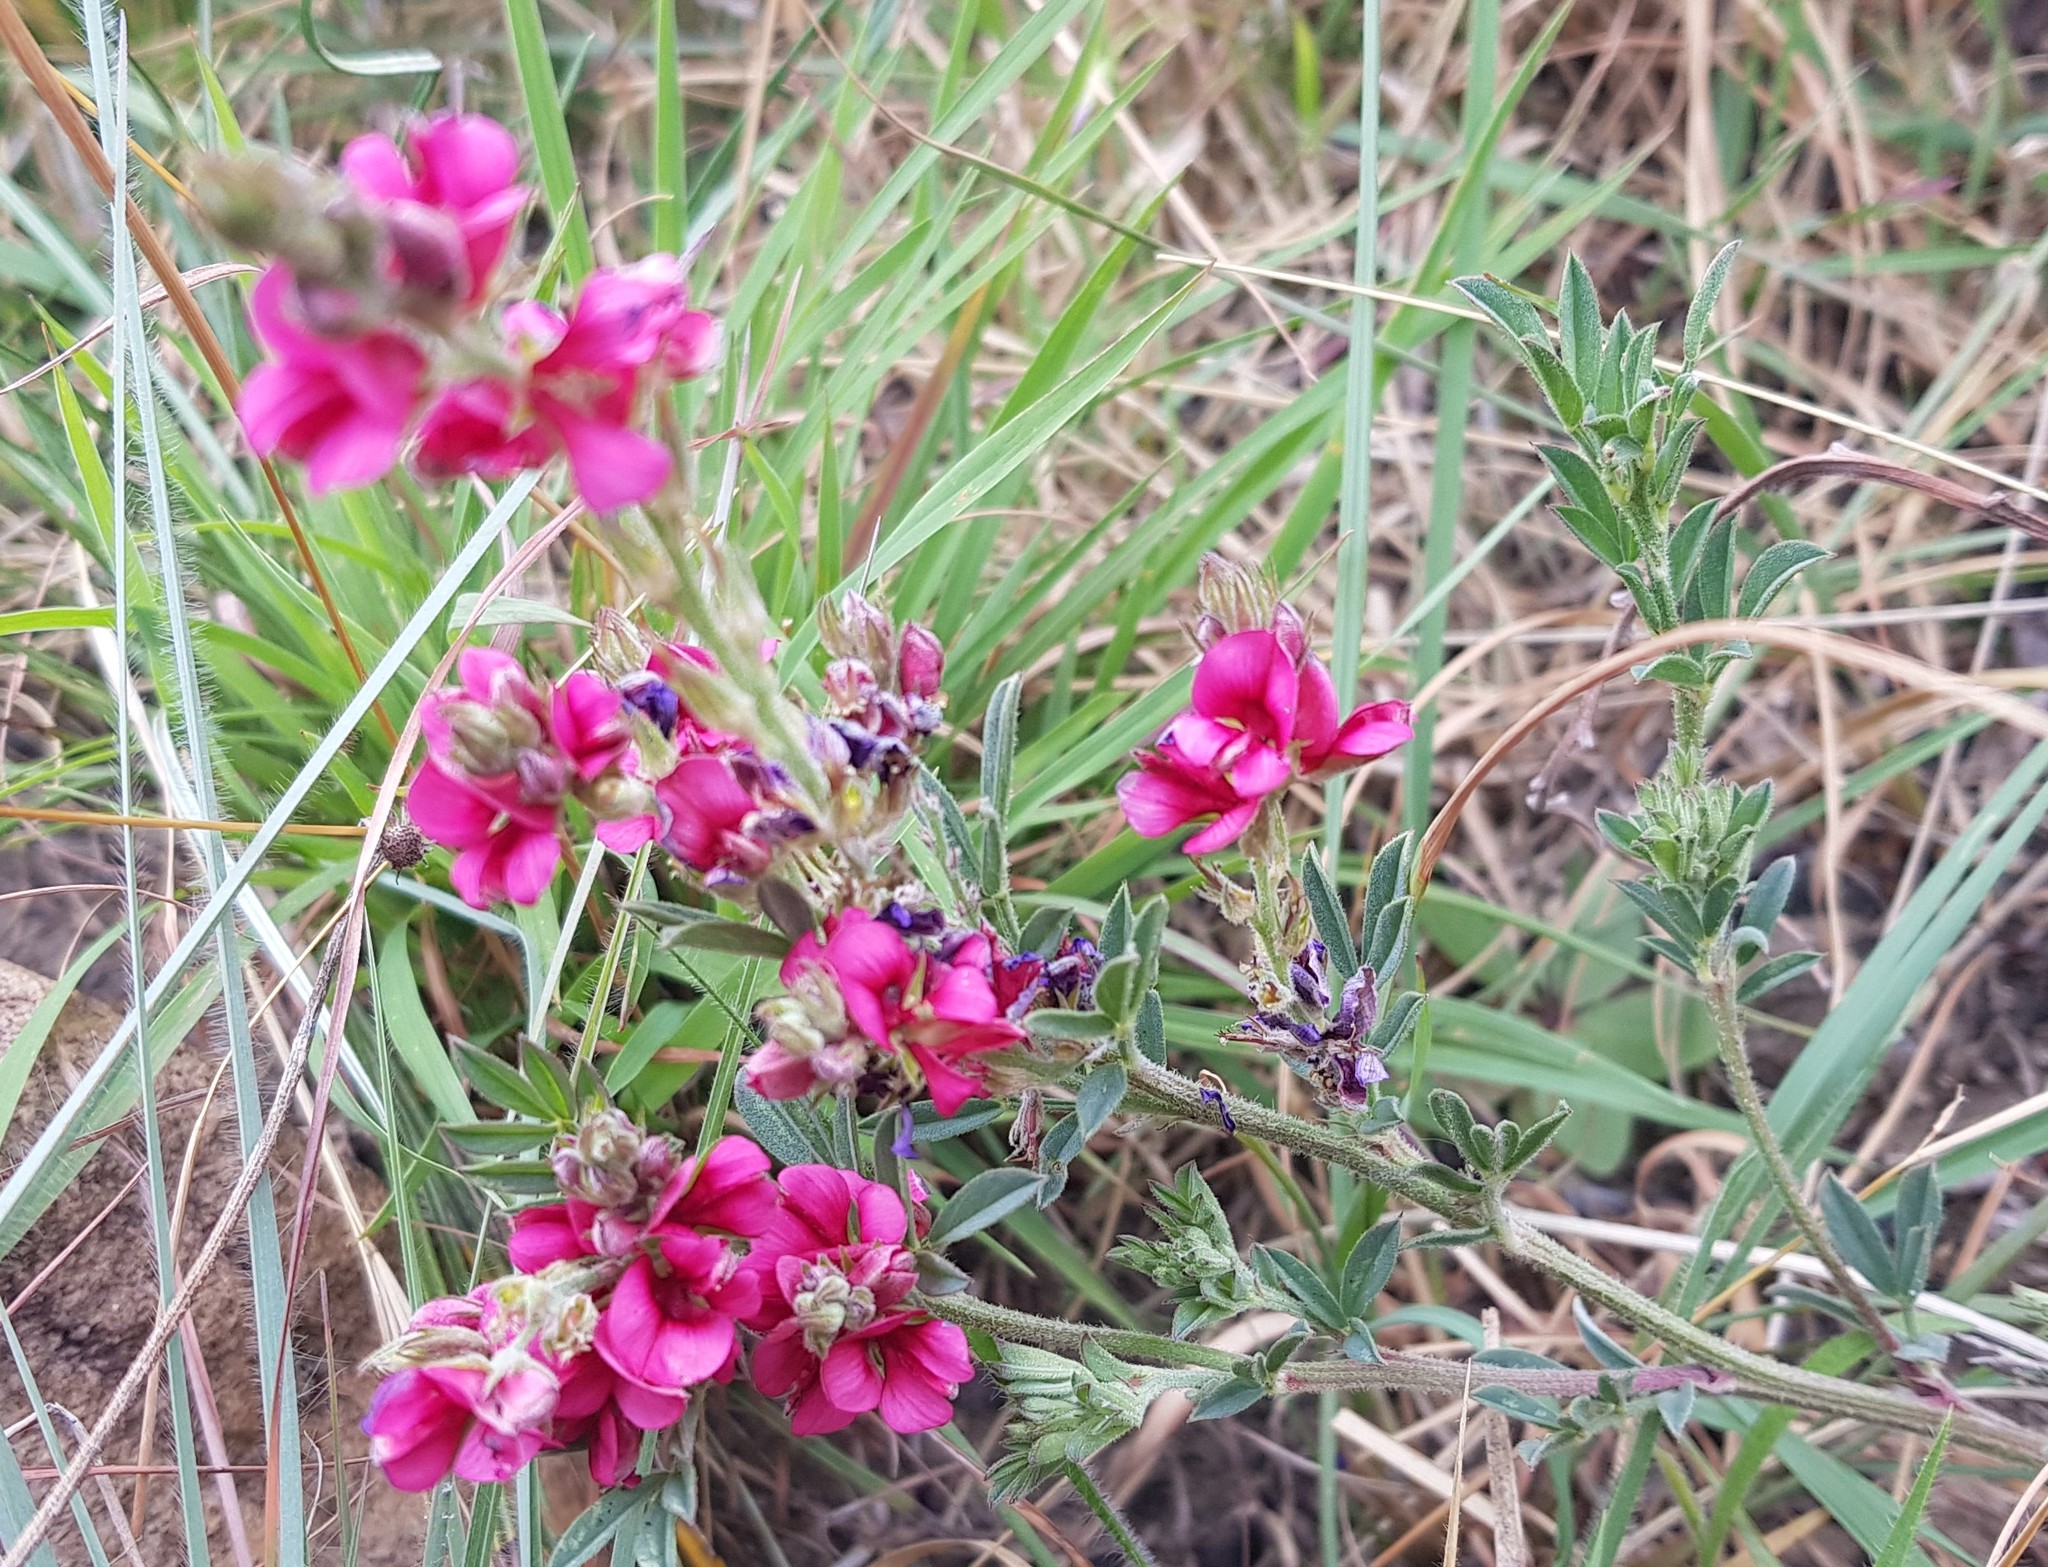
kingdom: Plantae
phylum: Tracheophyta
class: Magnoliopsida
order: Fabales
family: Fabaceae
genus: Indigofera
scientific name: Indigofera hilaris
